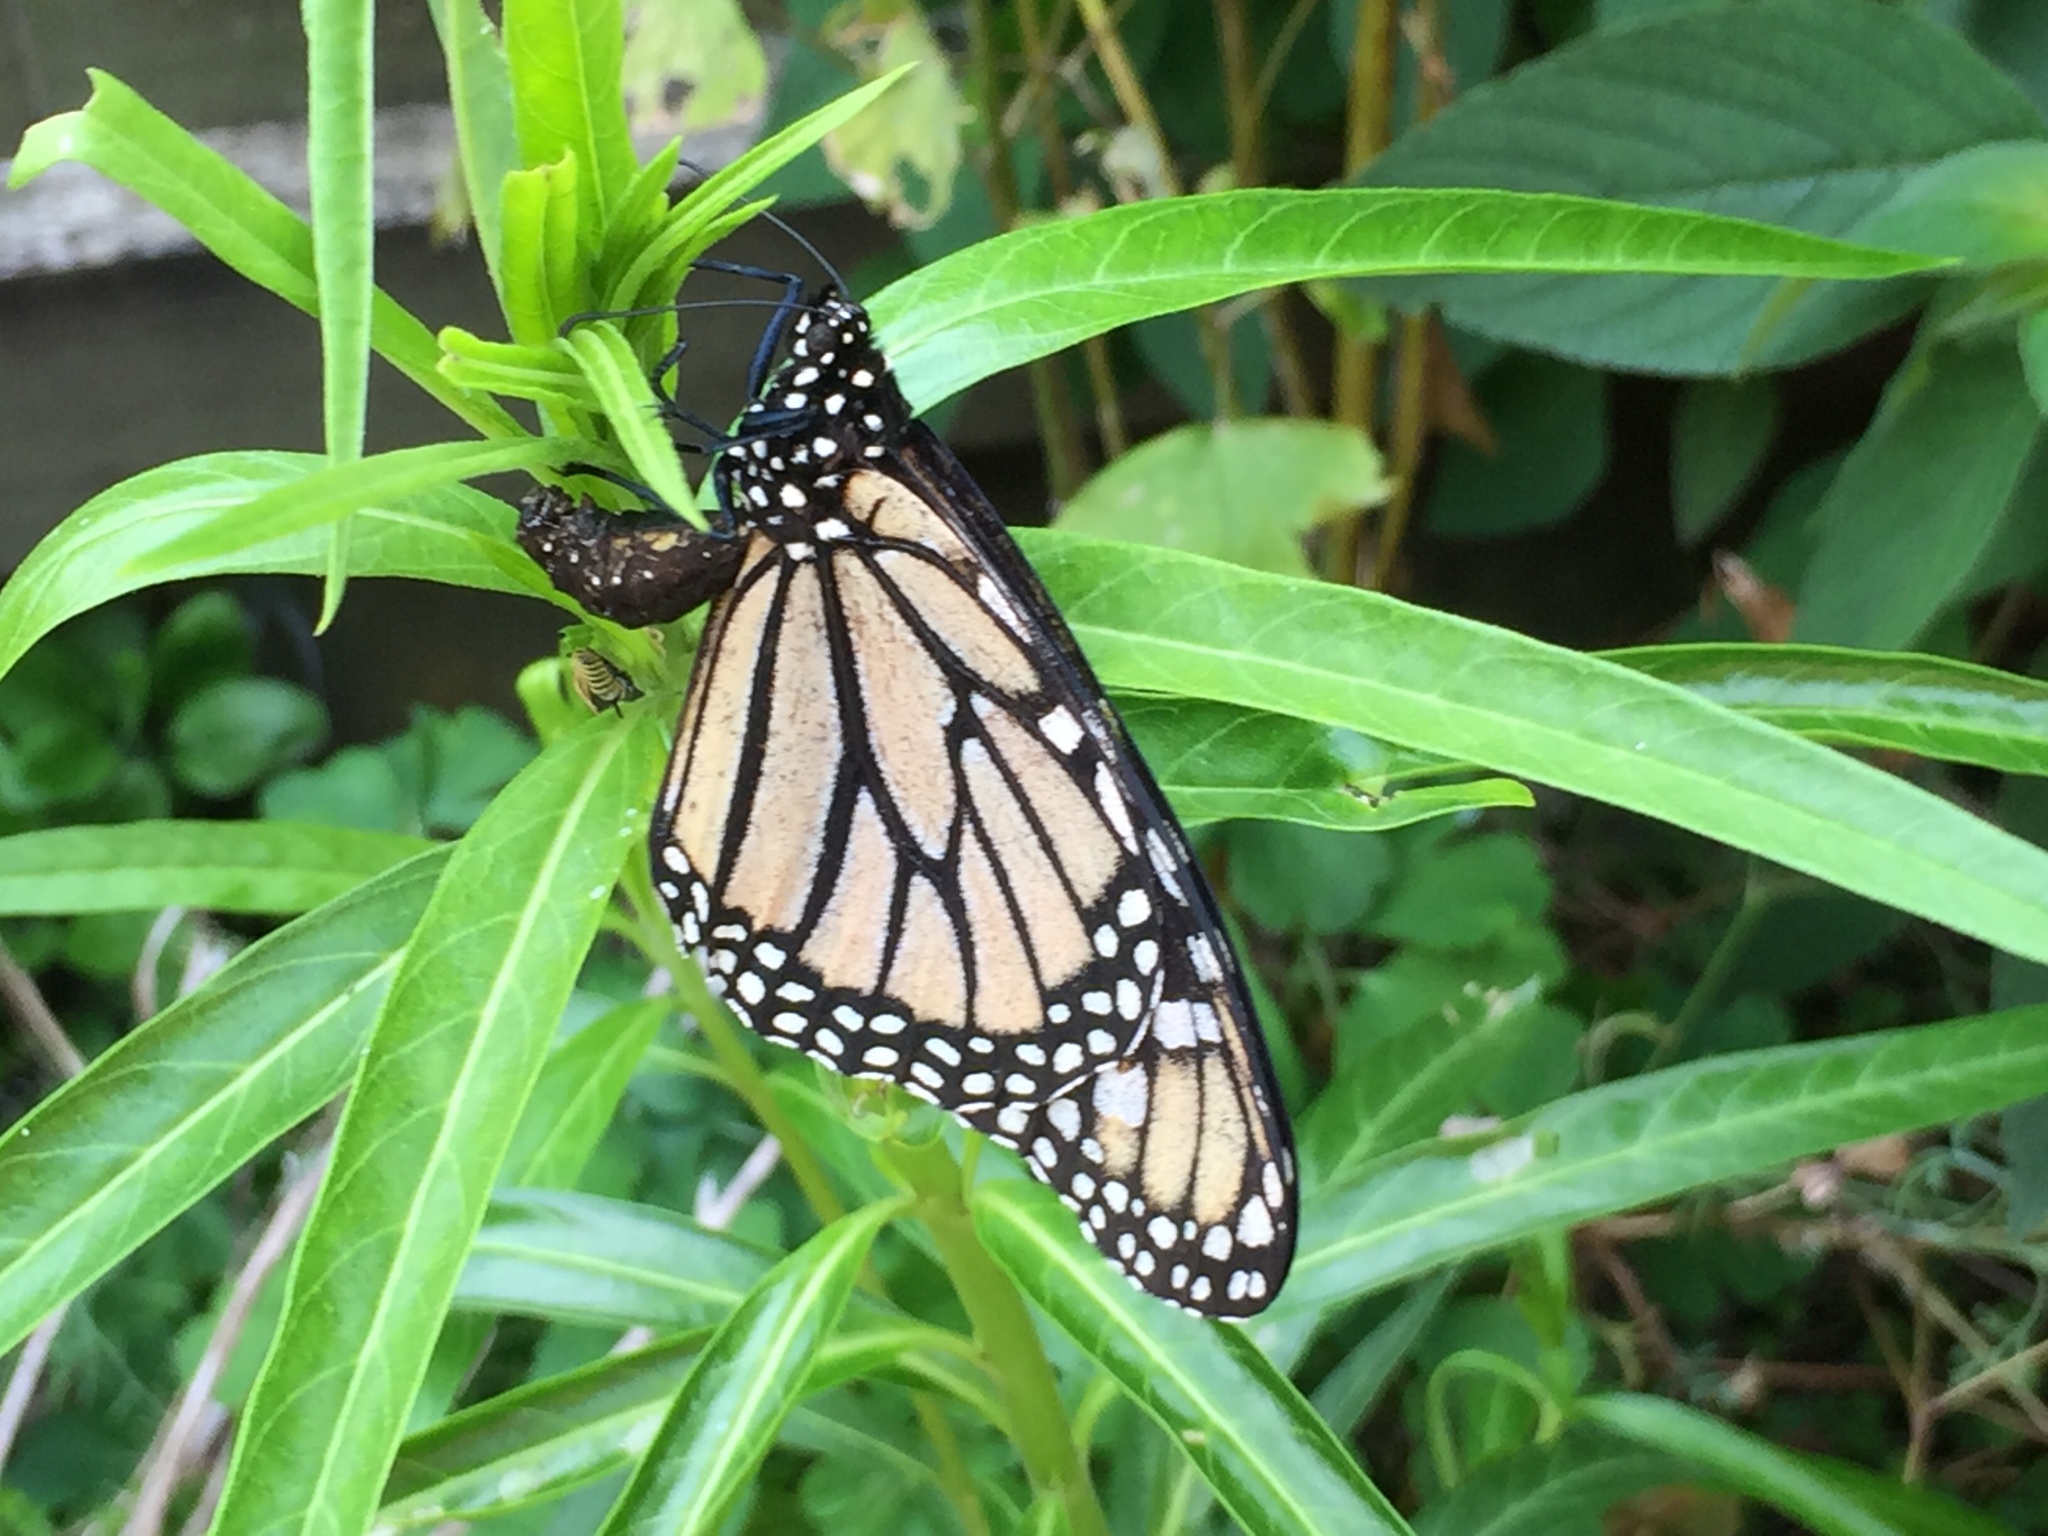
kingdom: Animalia
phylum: Arthropoda
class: Insecta
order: Lepidoptera
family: Nymphalidae
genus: Danaus
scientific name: Danaus plexippus
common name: Monarch
